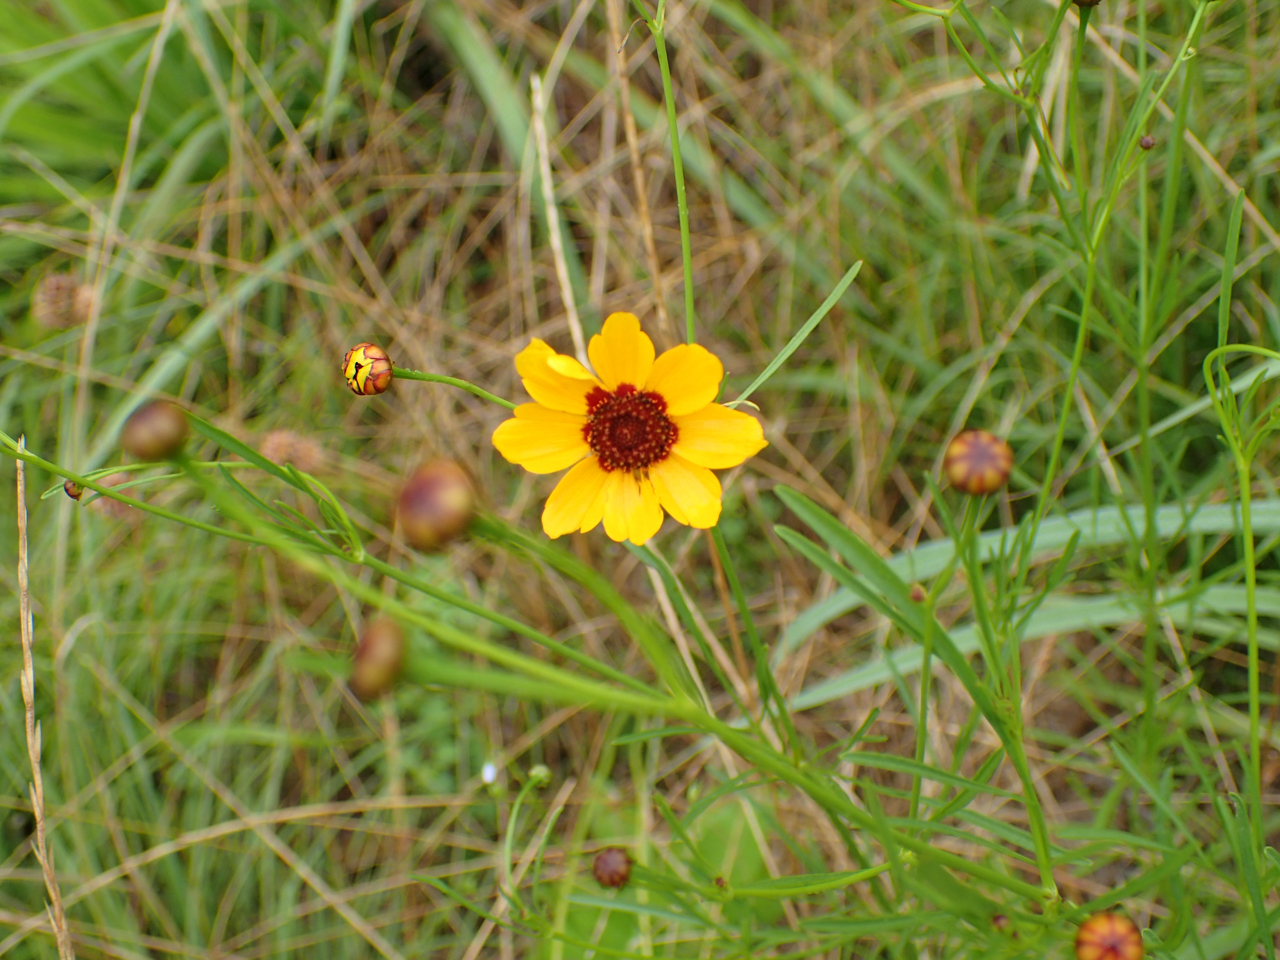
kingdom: Plantae
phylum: Tracheophyta
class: Magnoliopsida
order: Asterales
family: Asteraceae
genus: Coreopsis
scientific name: Coreopsis tinctoria
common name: Garden tickseed
